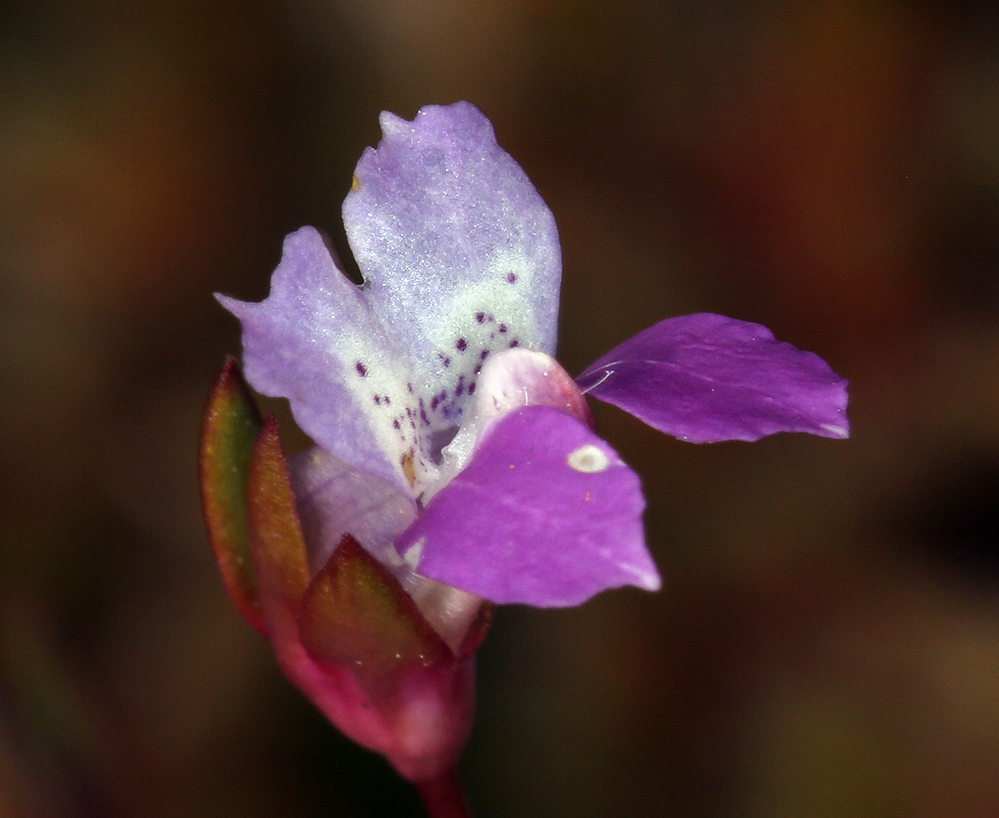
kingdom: Plantae
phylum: Tracheophyta
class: Magnoliopsida
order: Lamiales
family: Plantaginaceae
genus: Collinsia
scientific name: Collinsia sparsiflora
